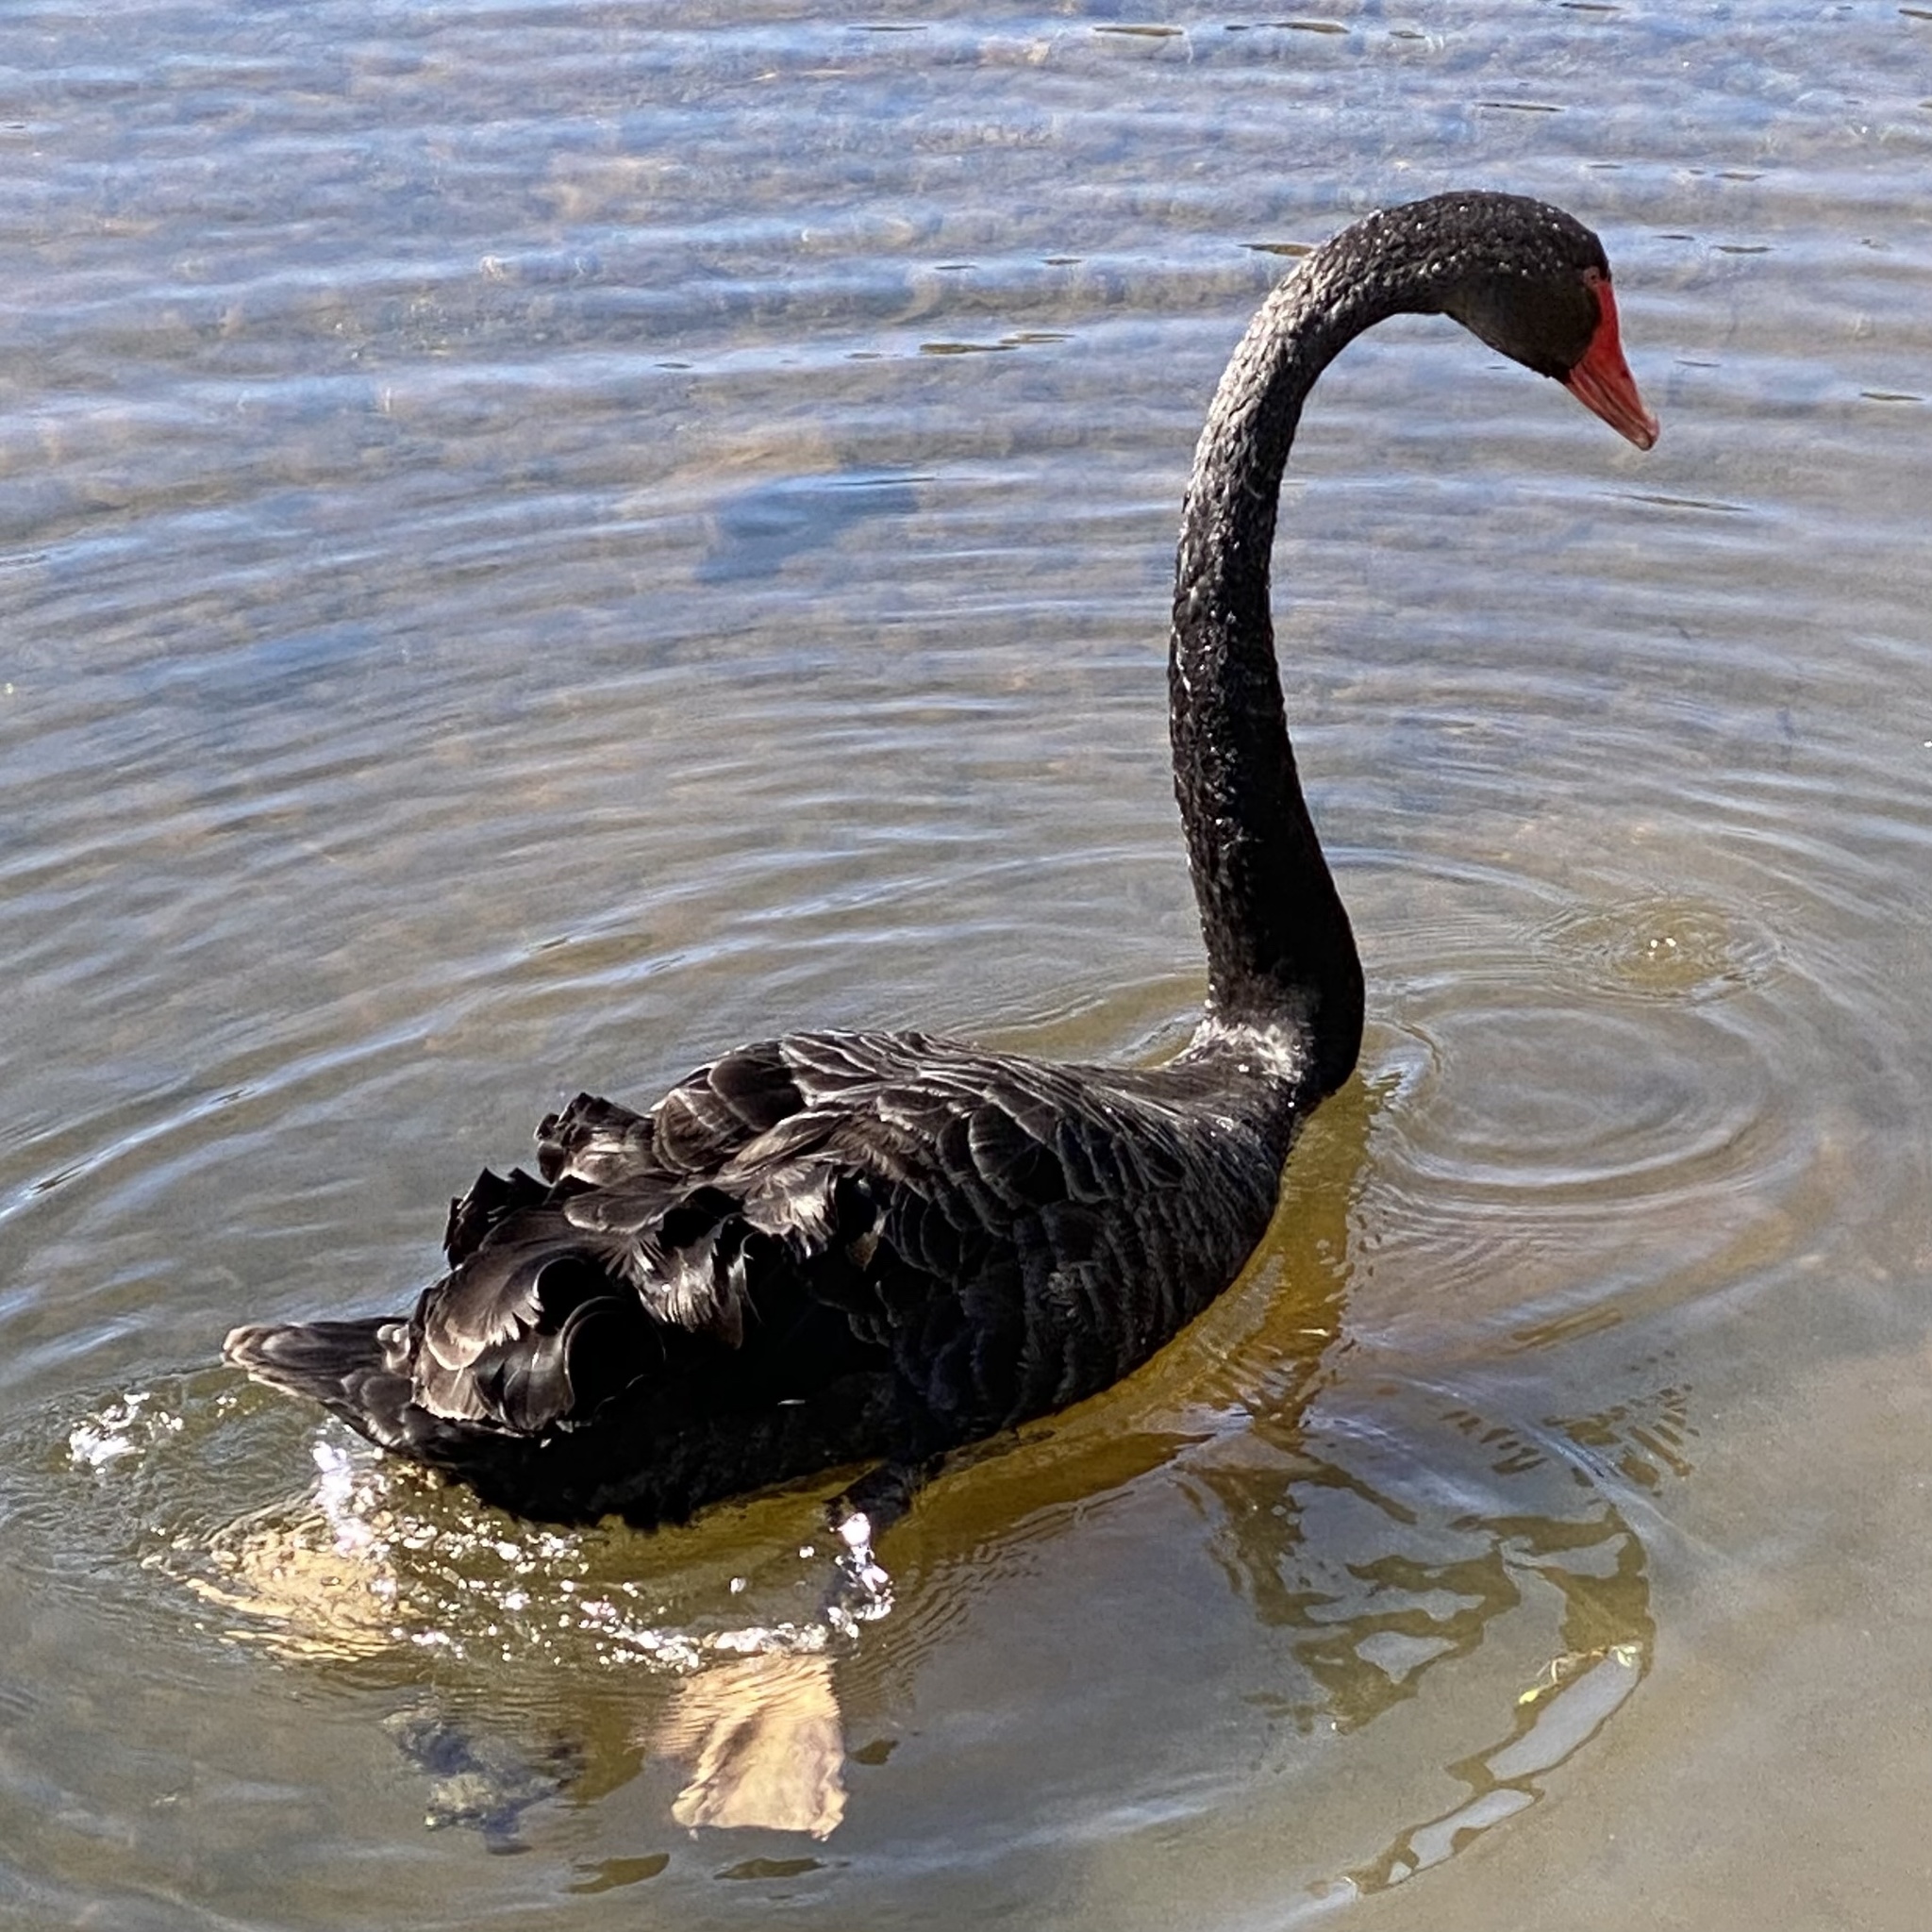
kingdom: Animalia
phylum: Chordata
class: Aves
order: Anseriformes
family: Anatidae
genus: Cygnus
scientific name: Cygnus atratus
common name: Black swan
